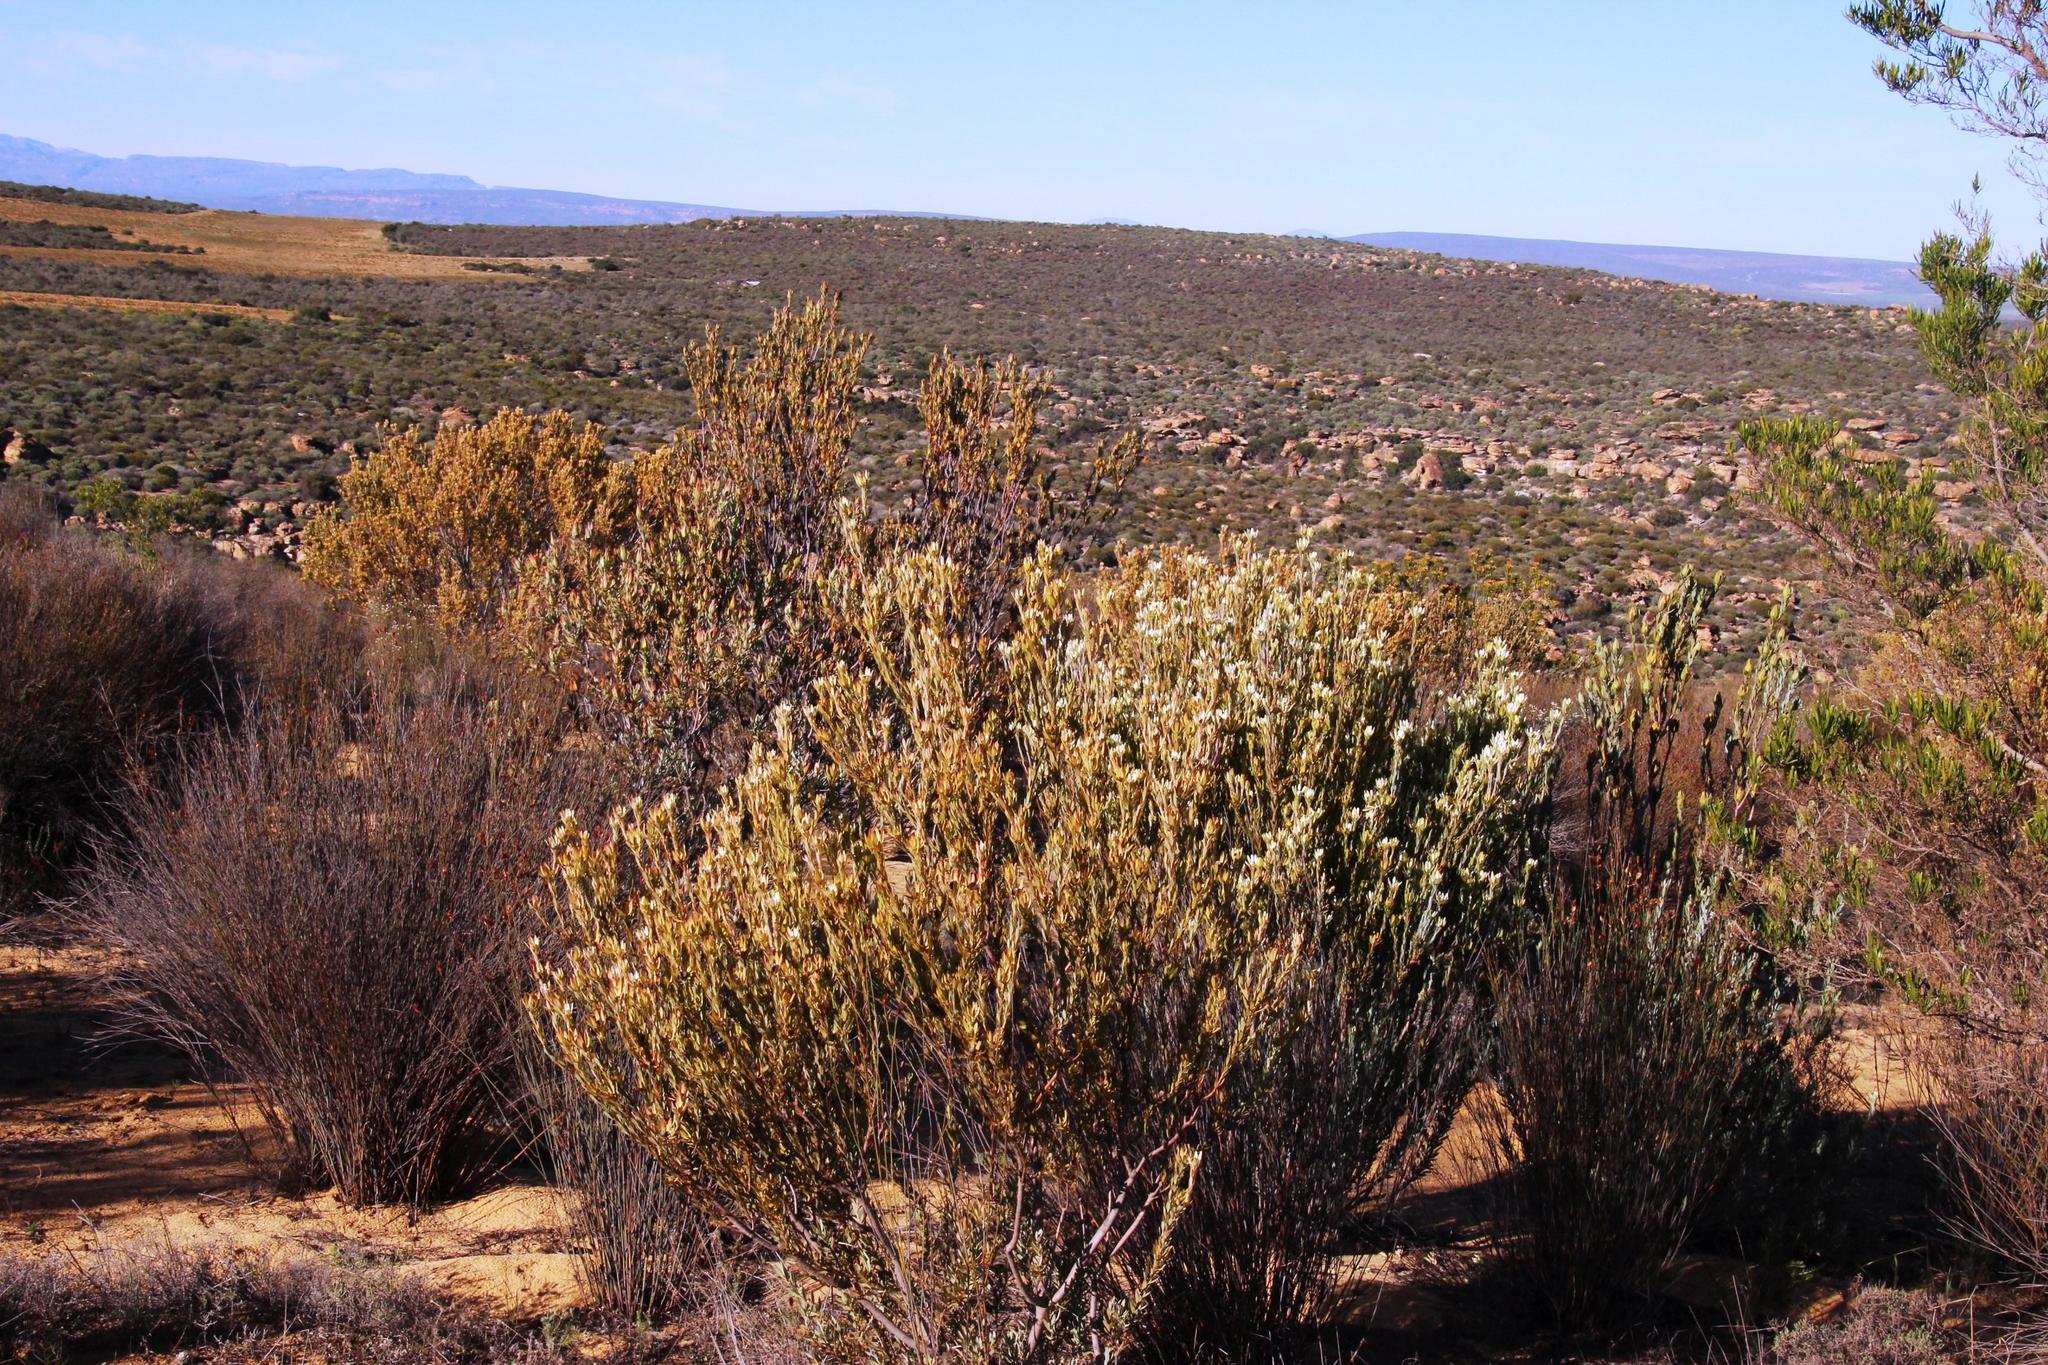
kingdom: Plantae
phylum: Tracheophyta
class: Magnoliopsida
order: Proteales
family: Proteaceae
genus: Leucadendron
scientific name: Leucadendron procerum
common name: Ivory conebush
